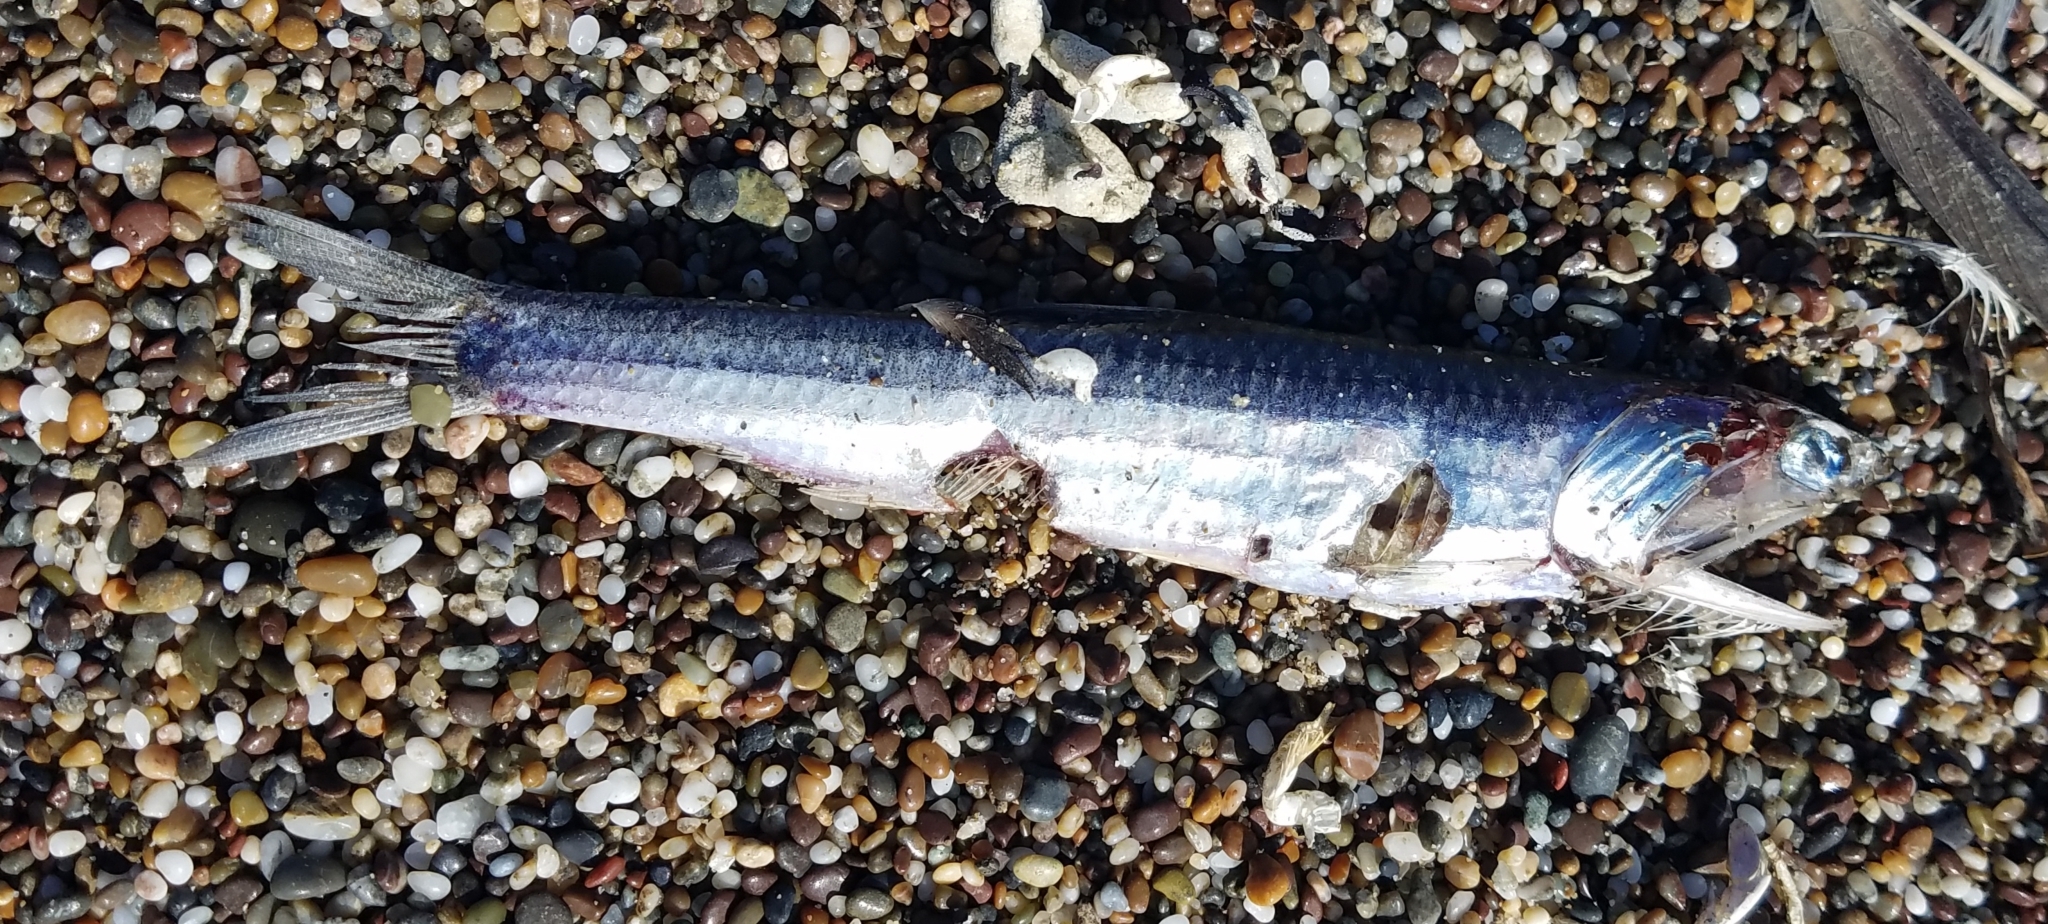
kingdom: Animalia
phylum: Chordata
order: Clupeiformes
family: Engraulidae
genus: Engraulis
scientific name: Engraulis mordax
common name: Northern anchovy
